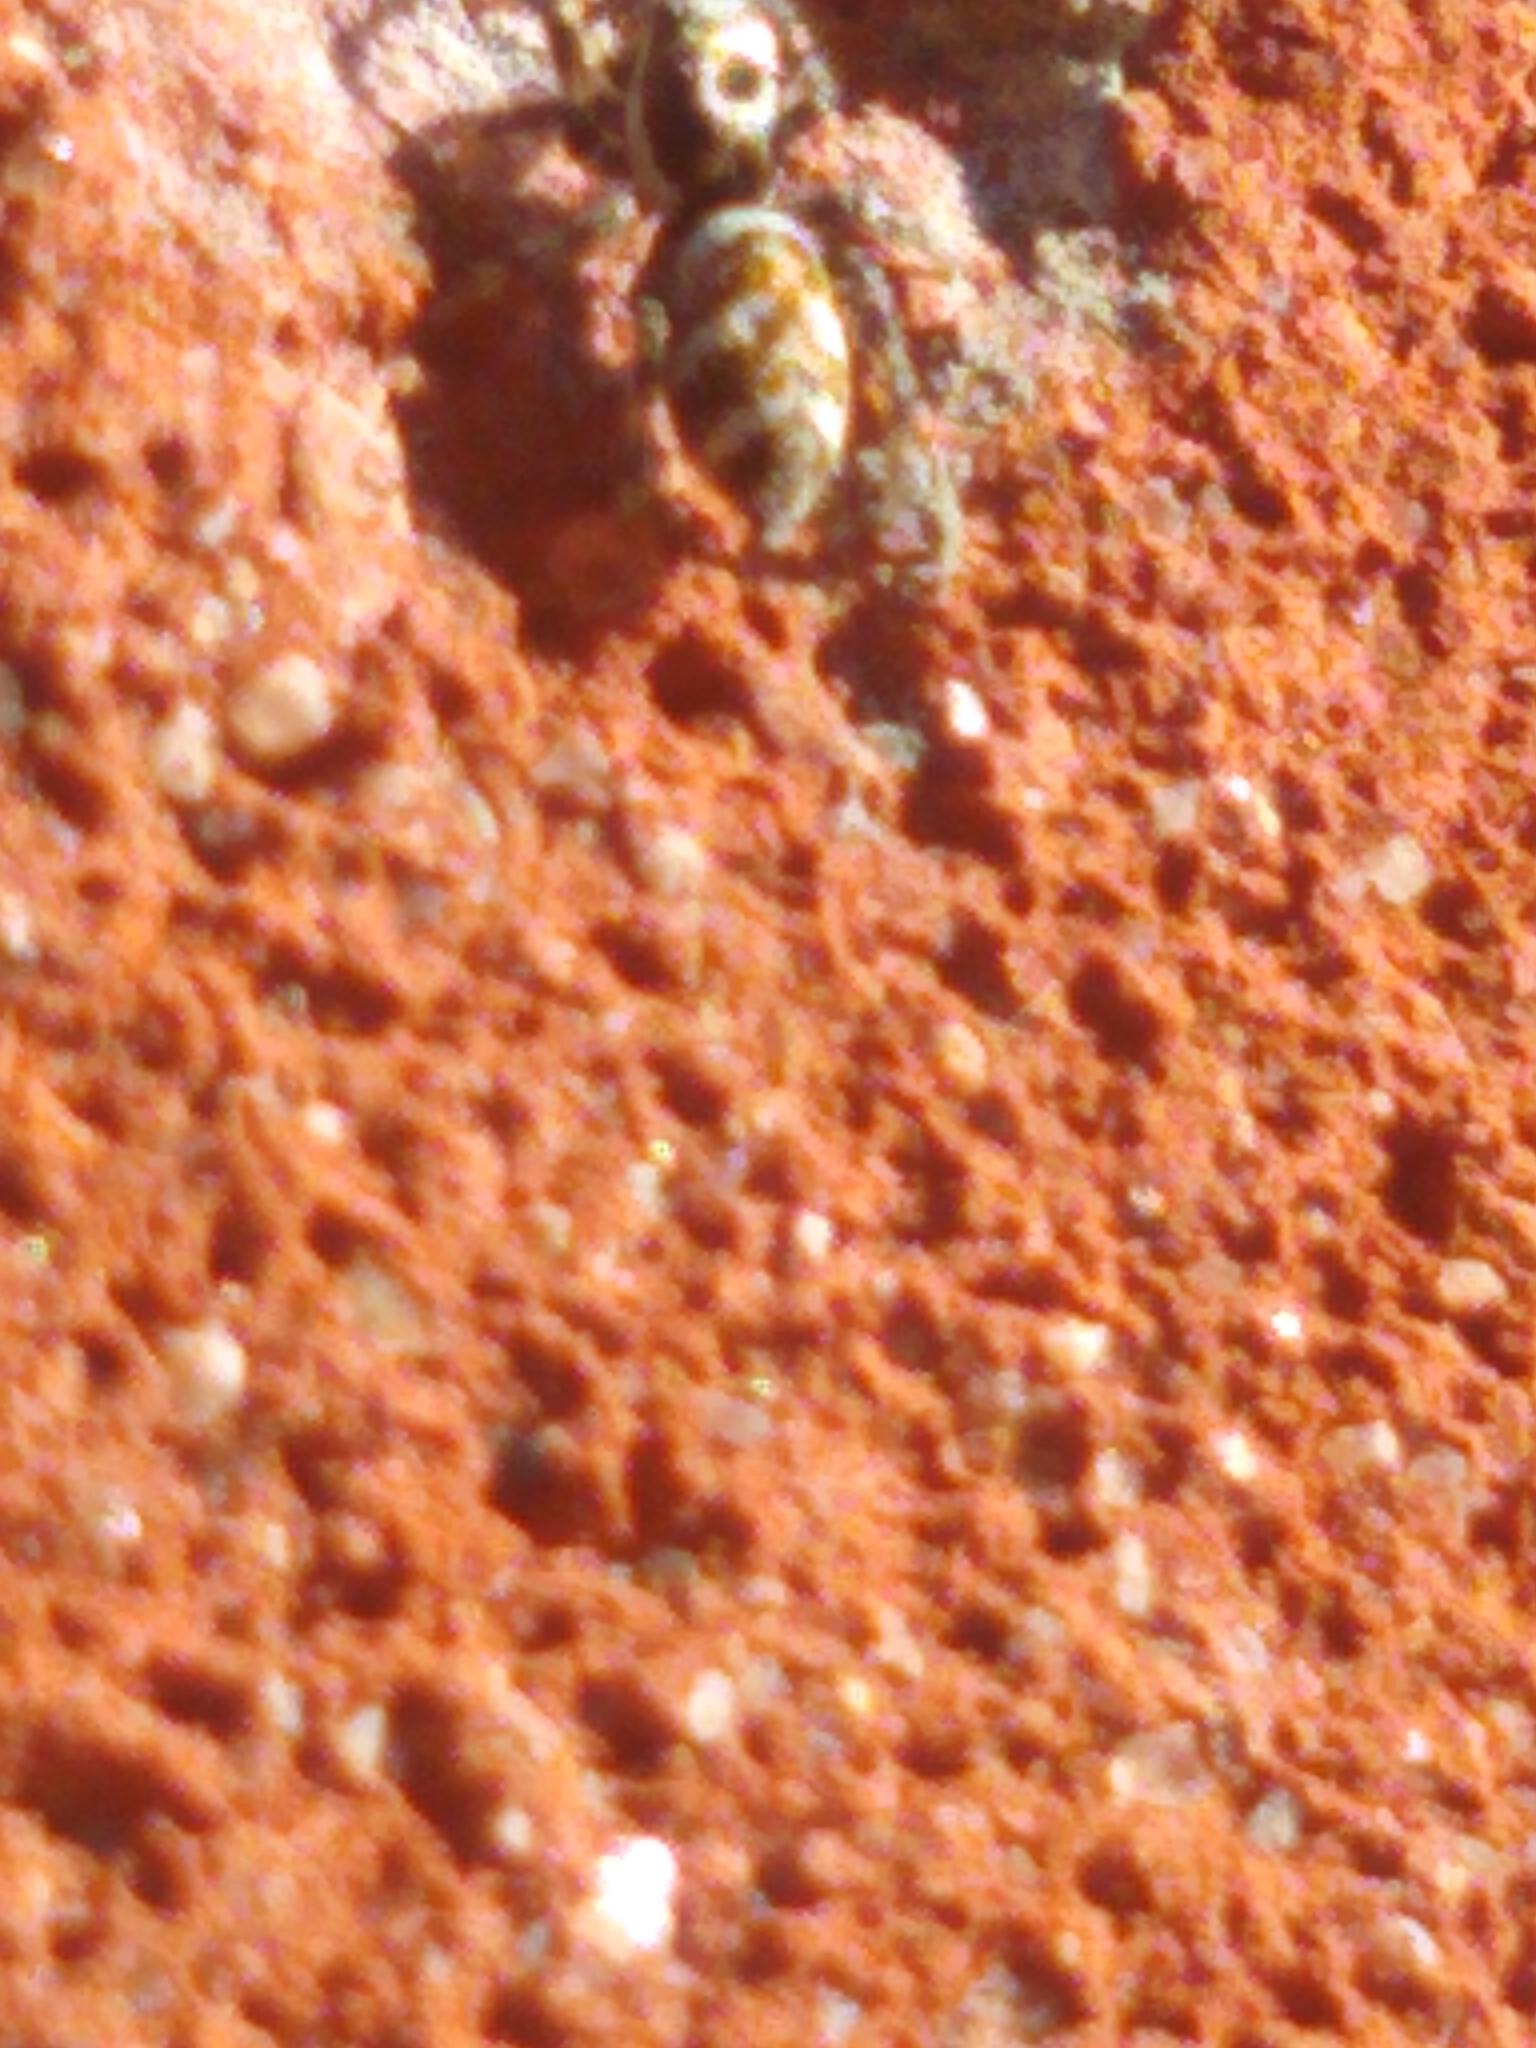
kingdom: Animalia
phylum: Arthropoda
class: Arachnida
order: Araneae
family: Salticidae
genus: Salticus
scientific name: Salticus scenicus
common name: Zebra jumper
